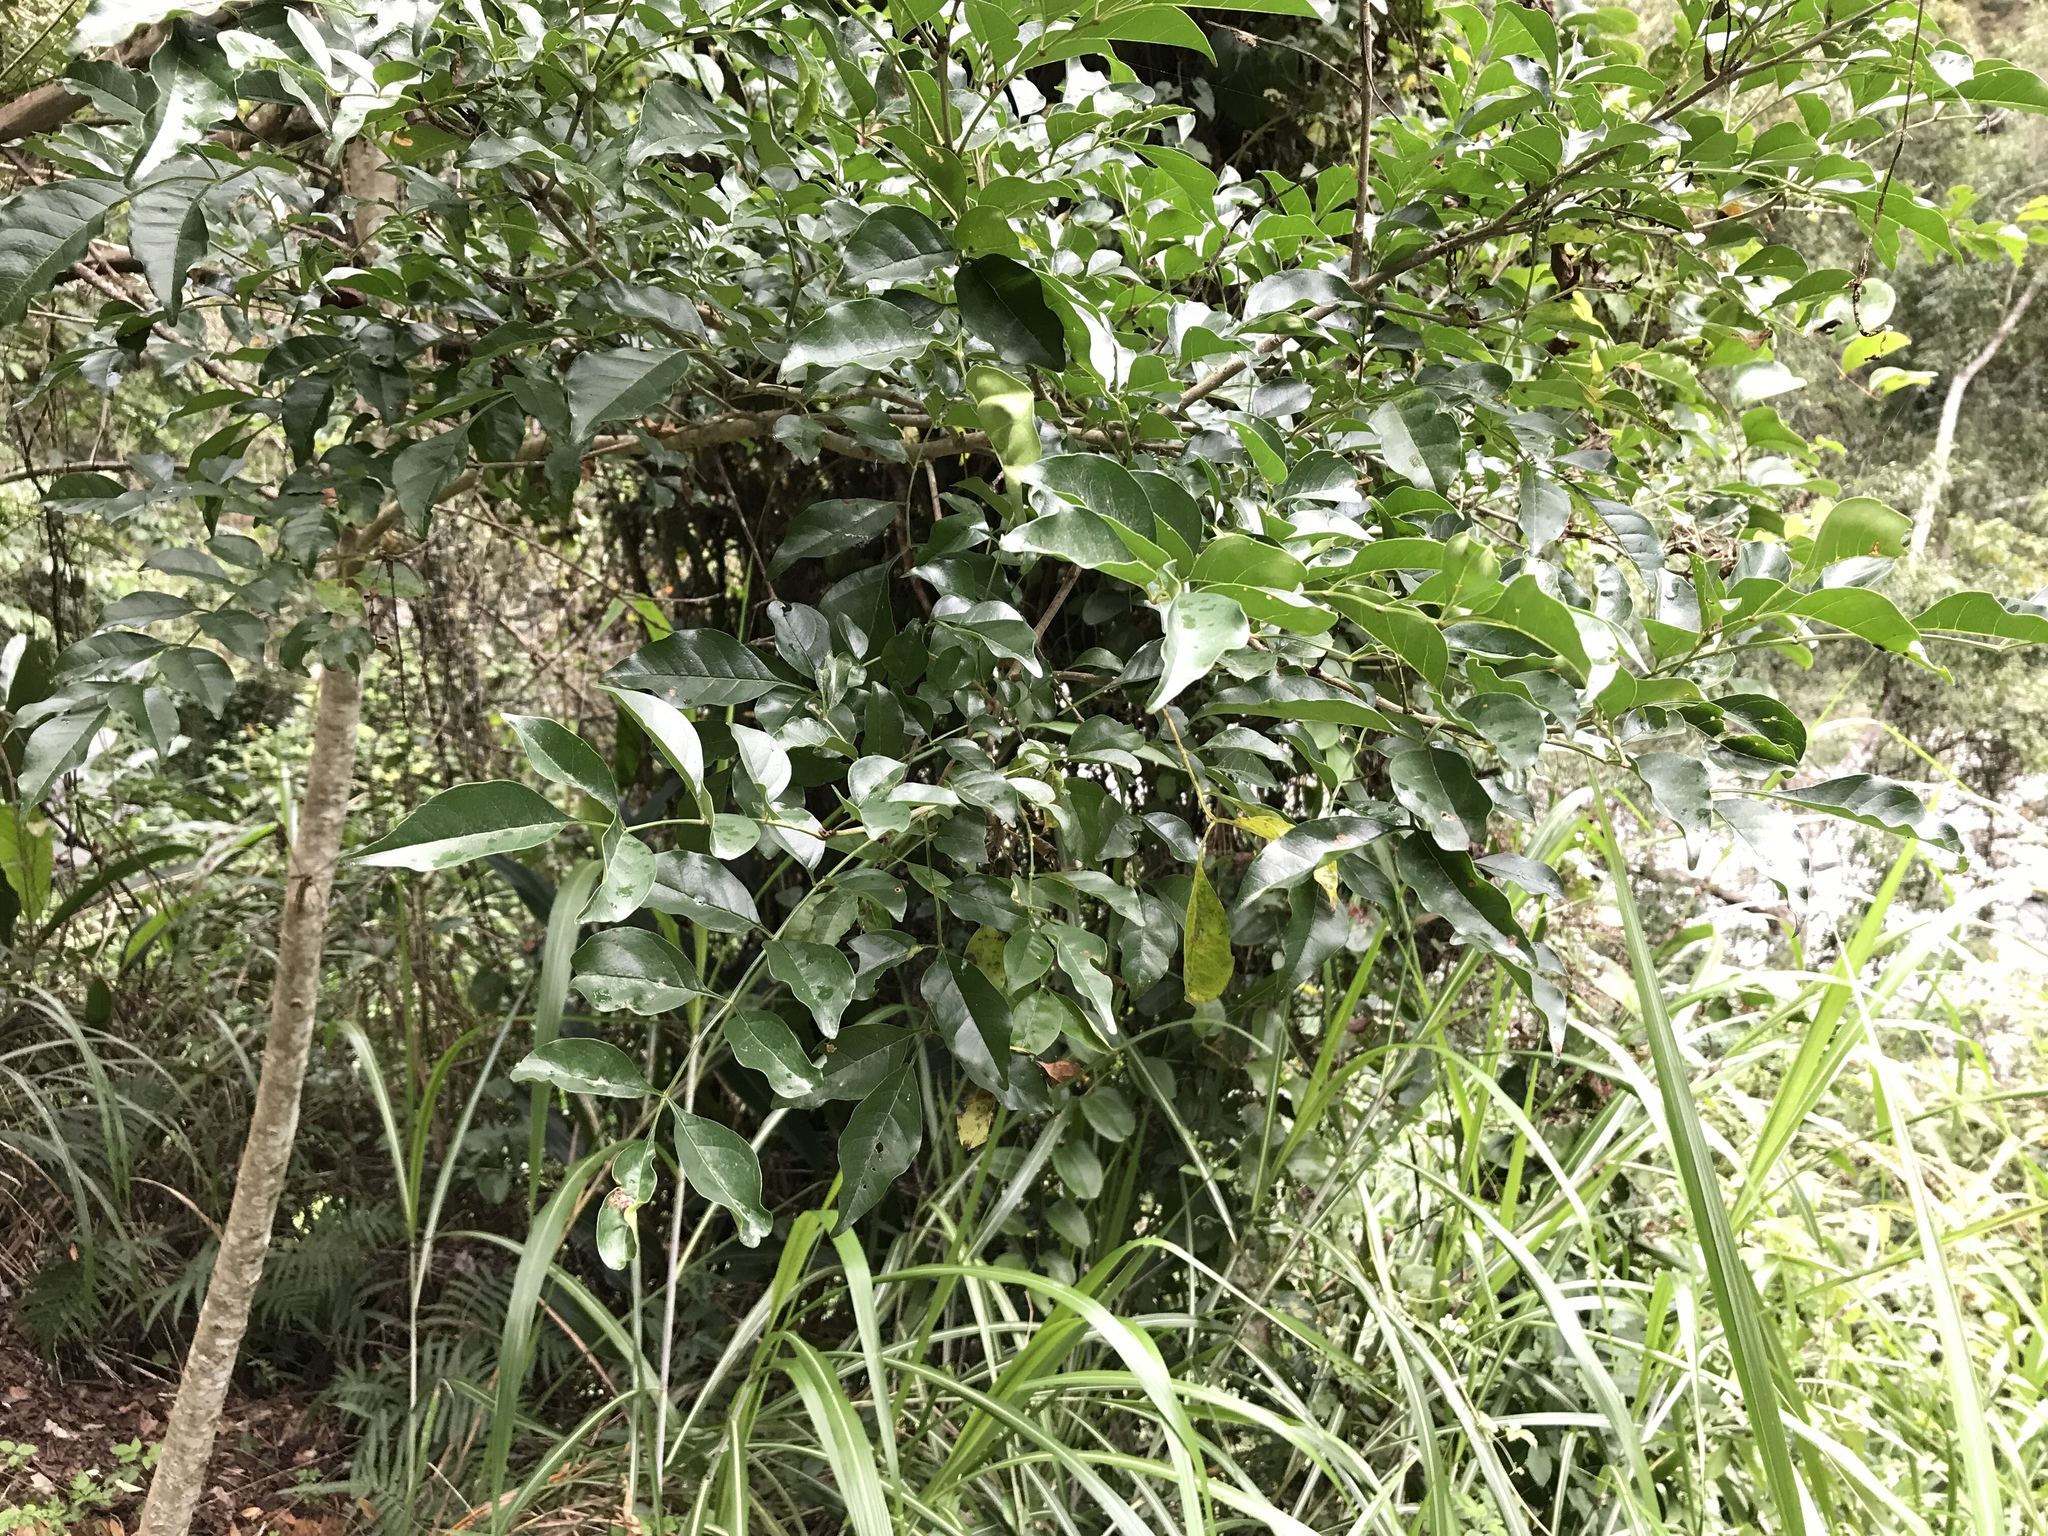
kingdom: Plantae
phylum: Tracheophyta
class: Magnoliopsida
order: Lamiales
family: Oleaceae
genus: Fraxinus
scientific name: Fraxinus griffithii
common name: Himalayan ash
